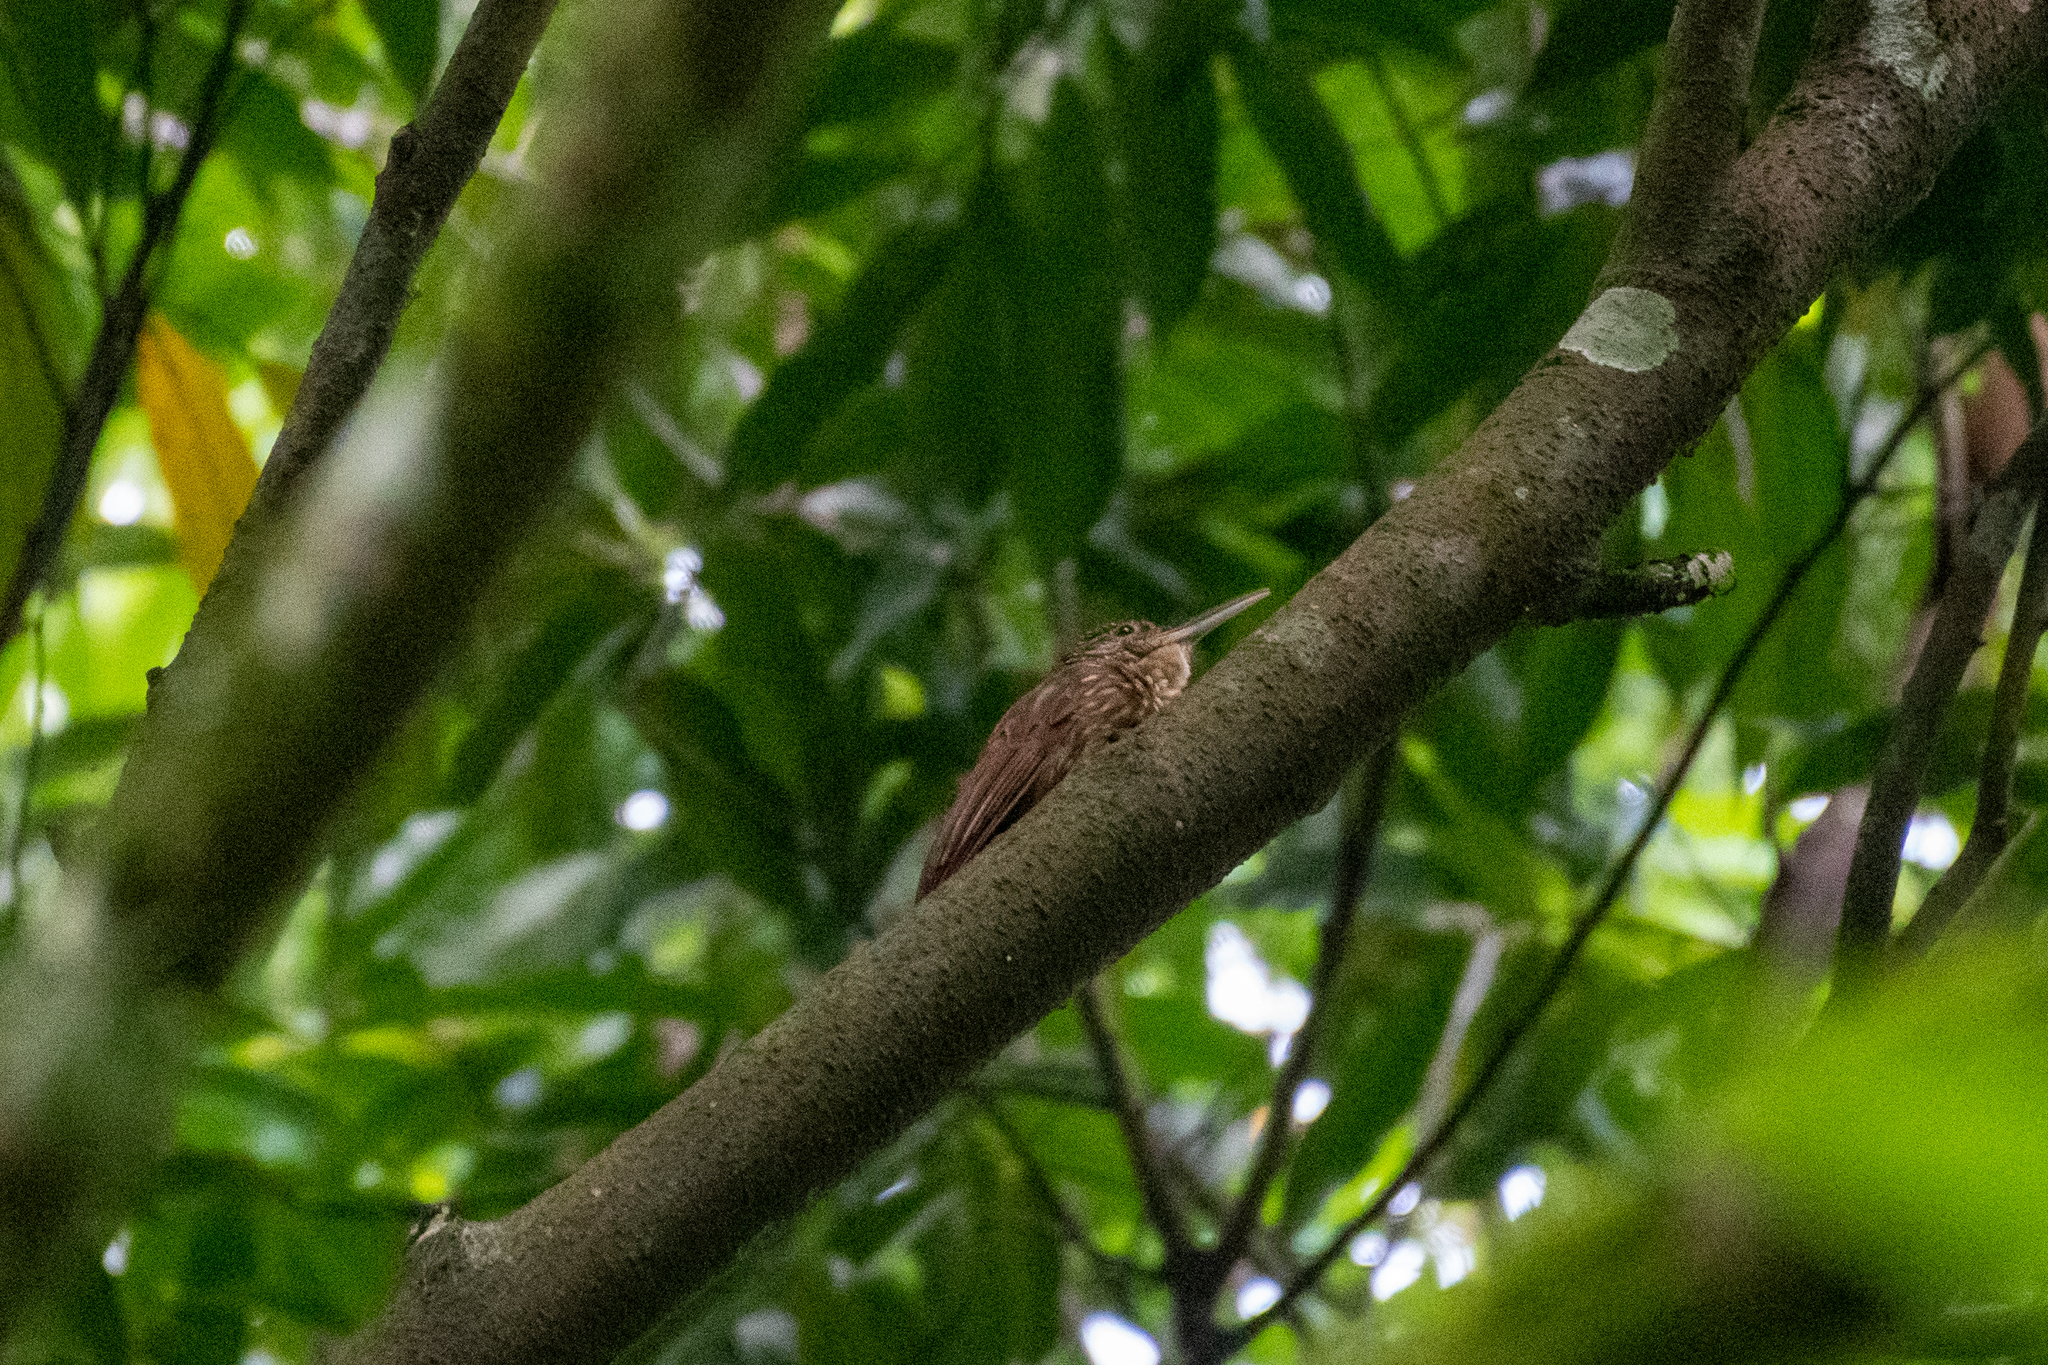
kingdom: Animalia
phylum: Chordata
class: Aves
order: Passeriformes
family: Furnariidae
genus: Xiphorhynchus
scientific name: Xiphorhynchus flavigaster
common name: Ivory-billed woodcreeper
